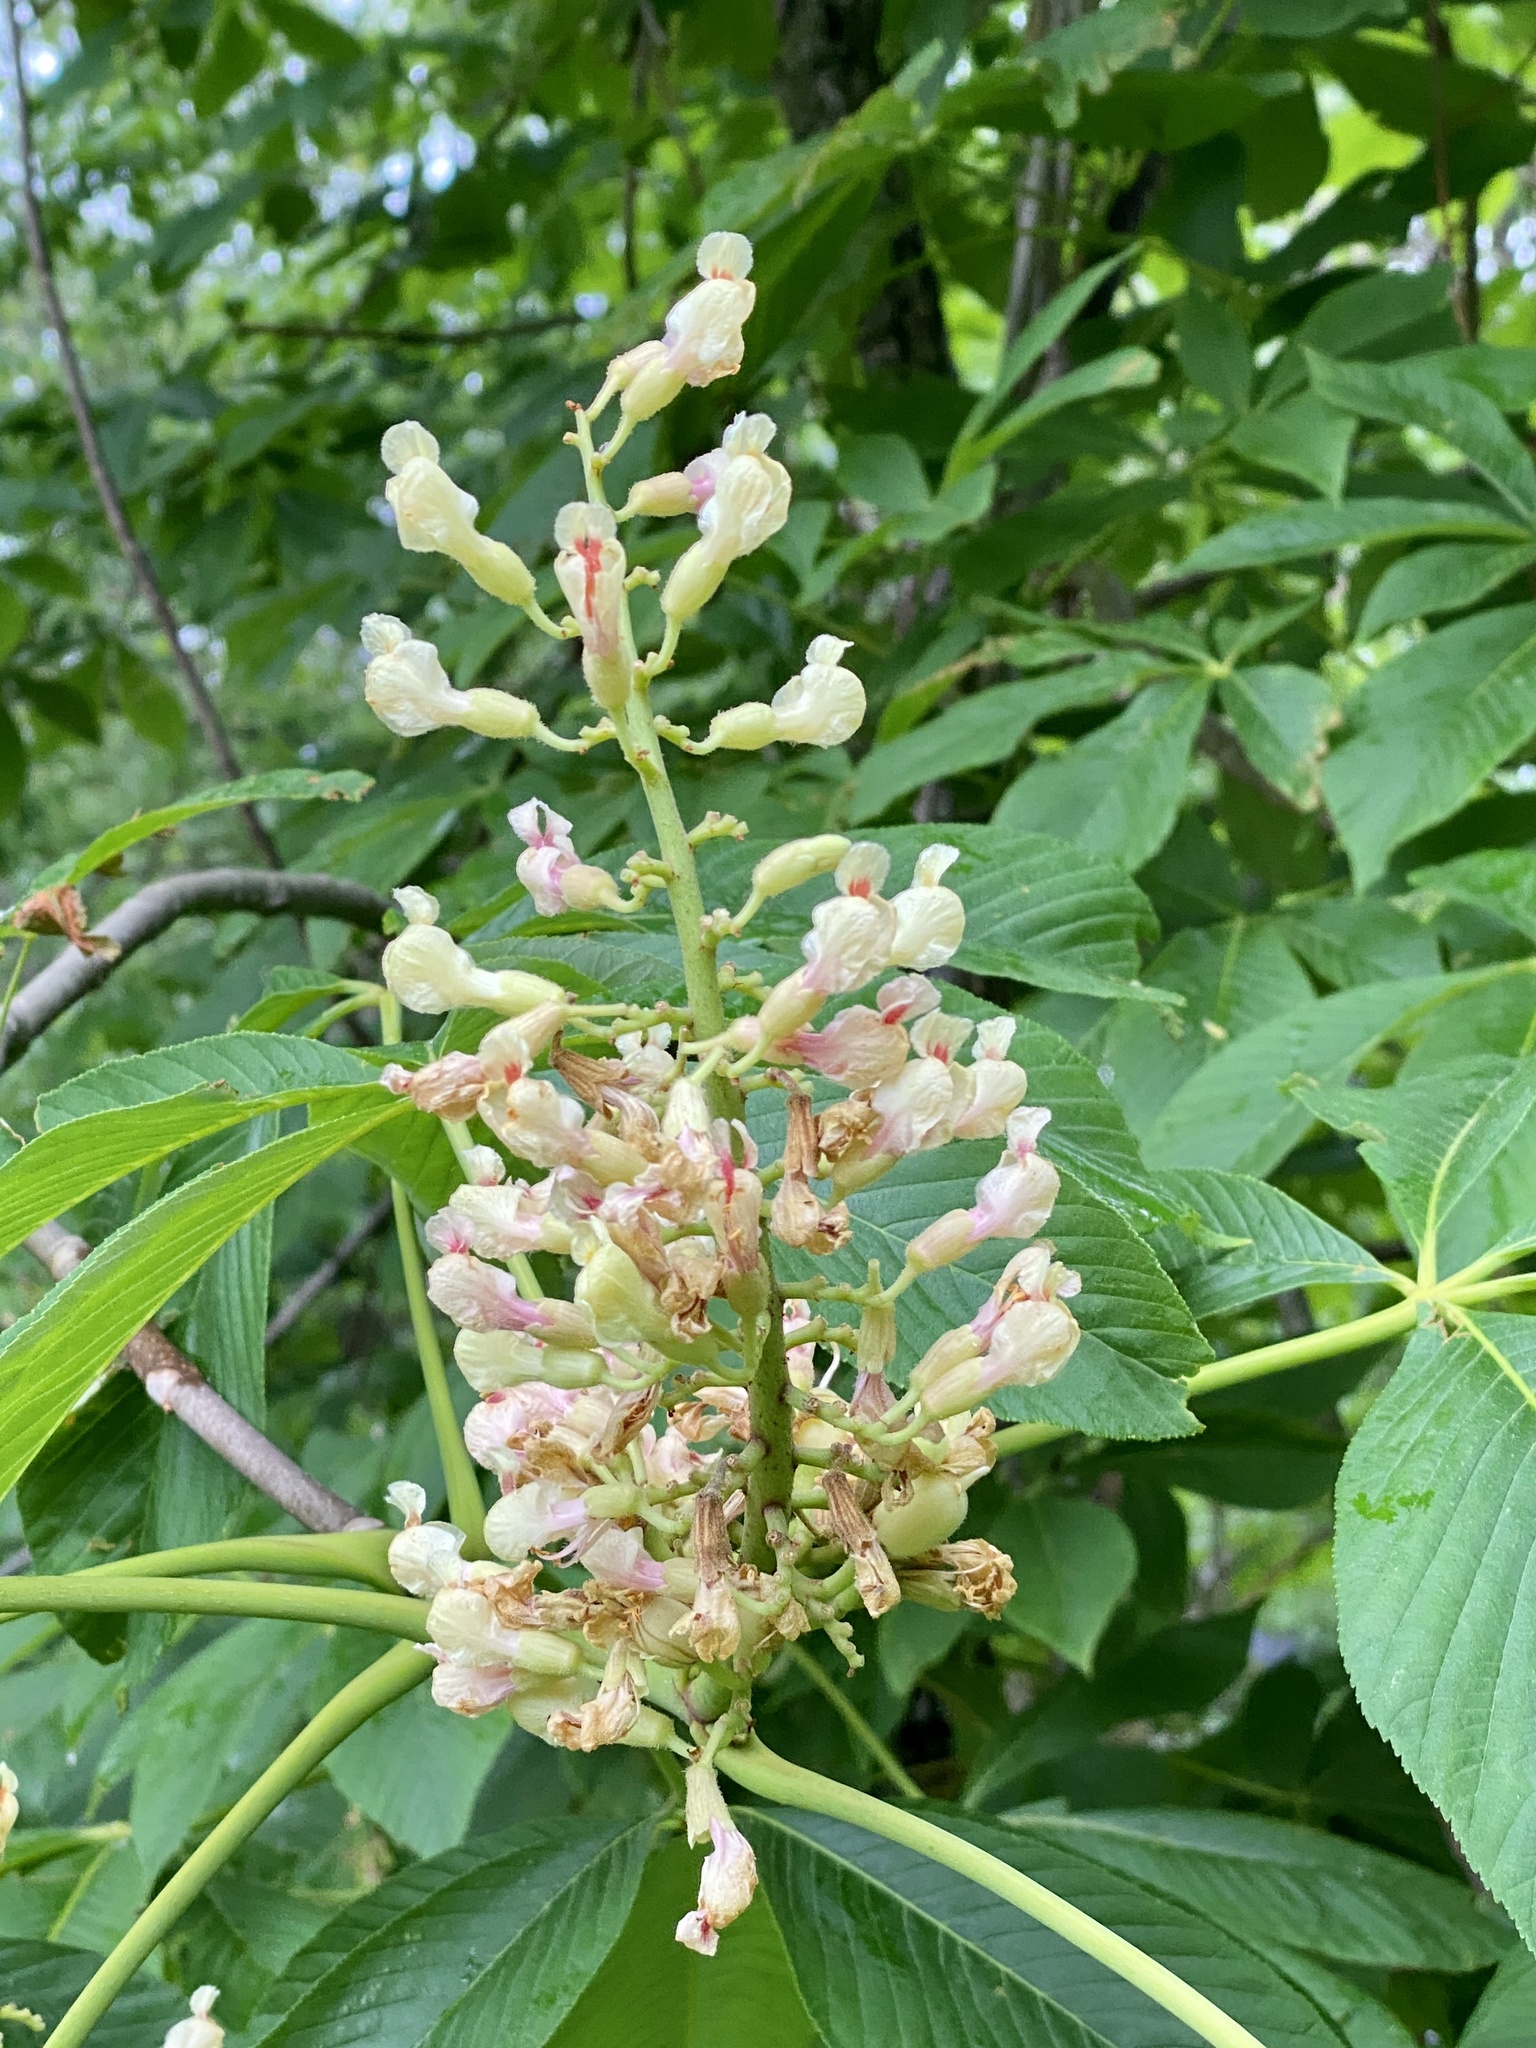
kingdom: Plantae
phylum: Tracheophyta
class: Magnoliopsida
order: Sapindales
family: Sapindaceae
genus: Aesculus
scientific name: Aesculus flava
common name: Yellow buckeye
